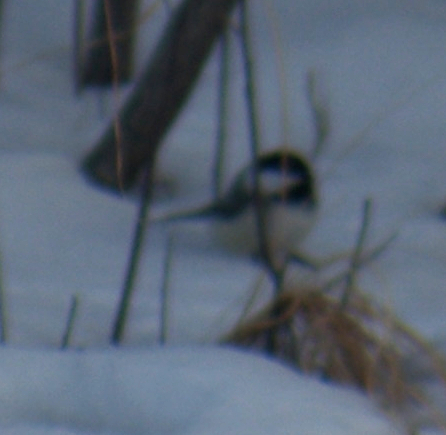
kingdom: Animalia
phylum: Chordata
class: Aves
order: Passeriformes
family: Paridae
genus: Poecile
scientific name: Poecile atricapillus
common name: Black-capped chickadee
